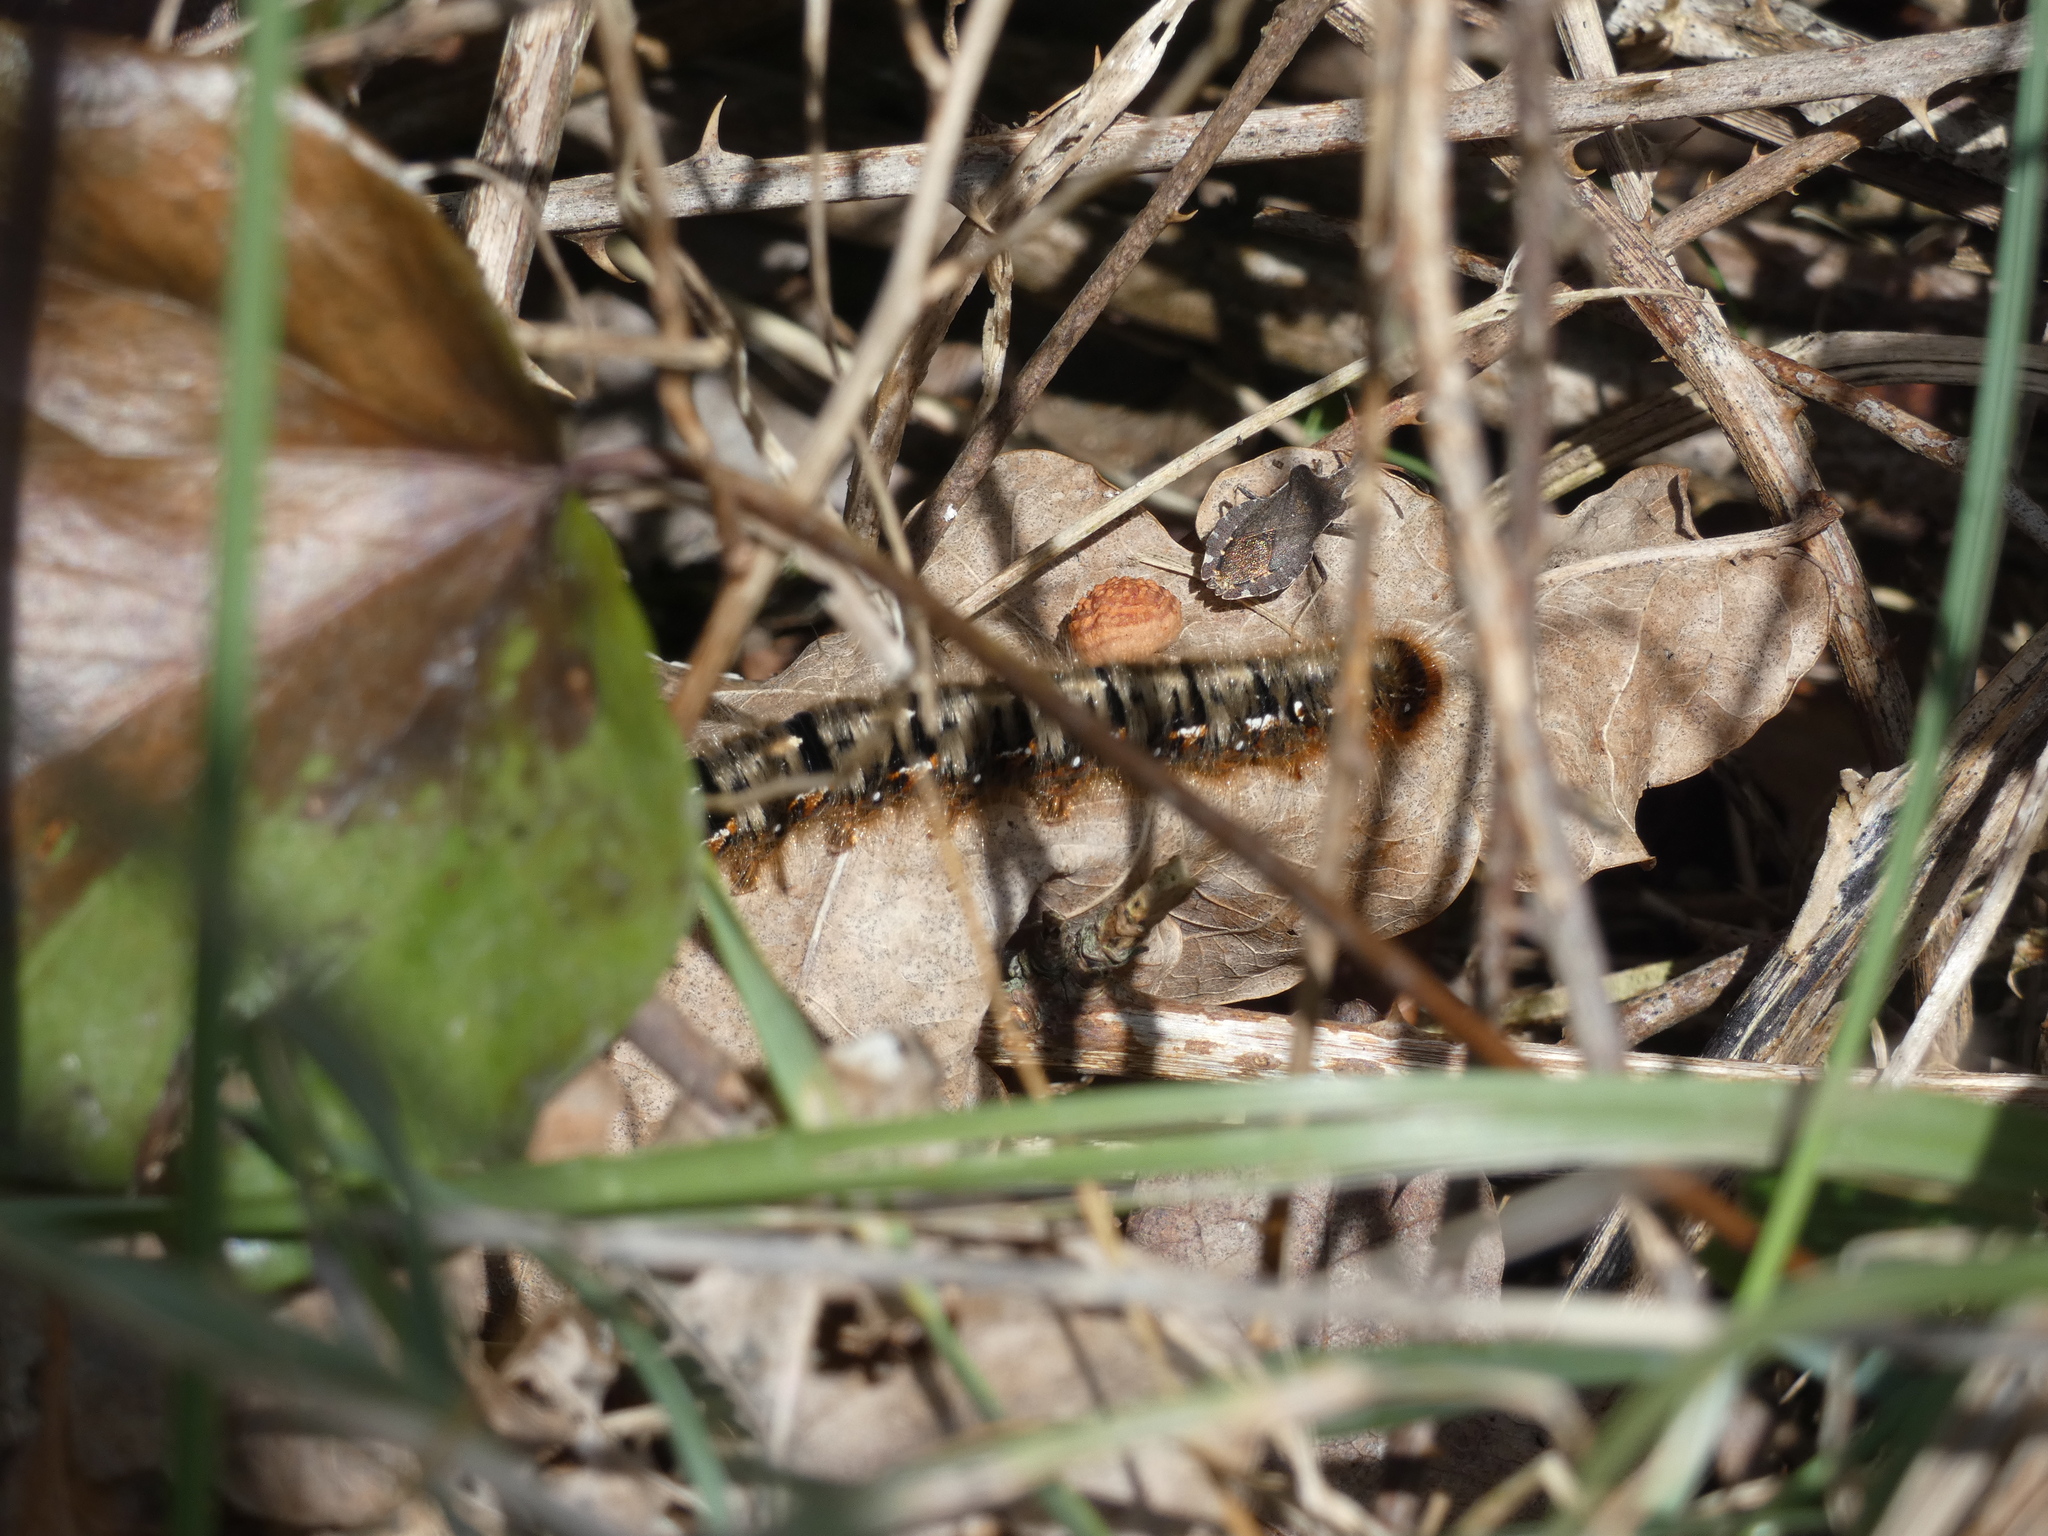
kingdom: Animalia
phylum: Arthropoda
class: Insecta
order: Lepidoptera
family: Lasiocampidae
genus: Lasiocampa
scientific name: Lasiocampa quercus
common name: Oak eggar
